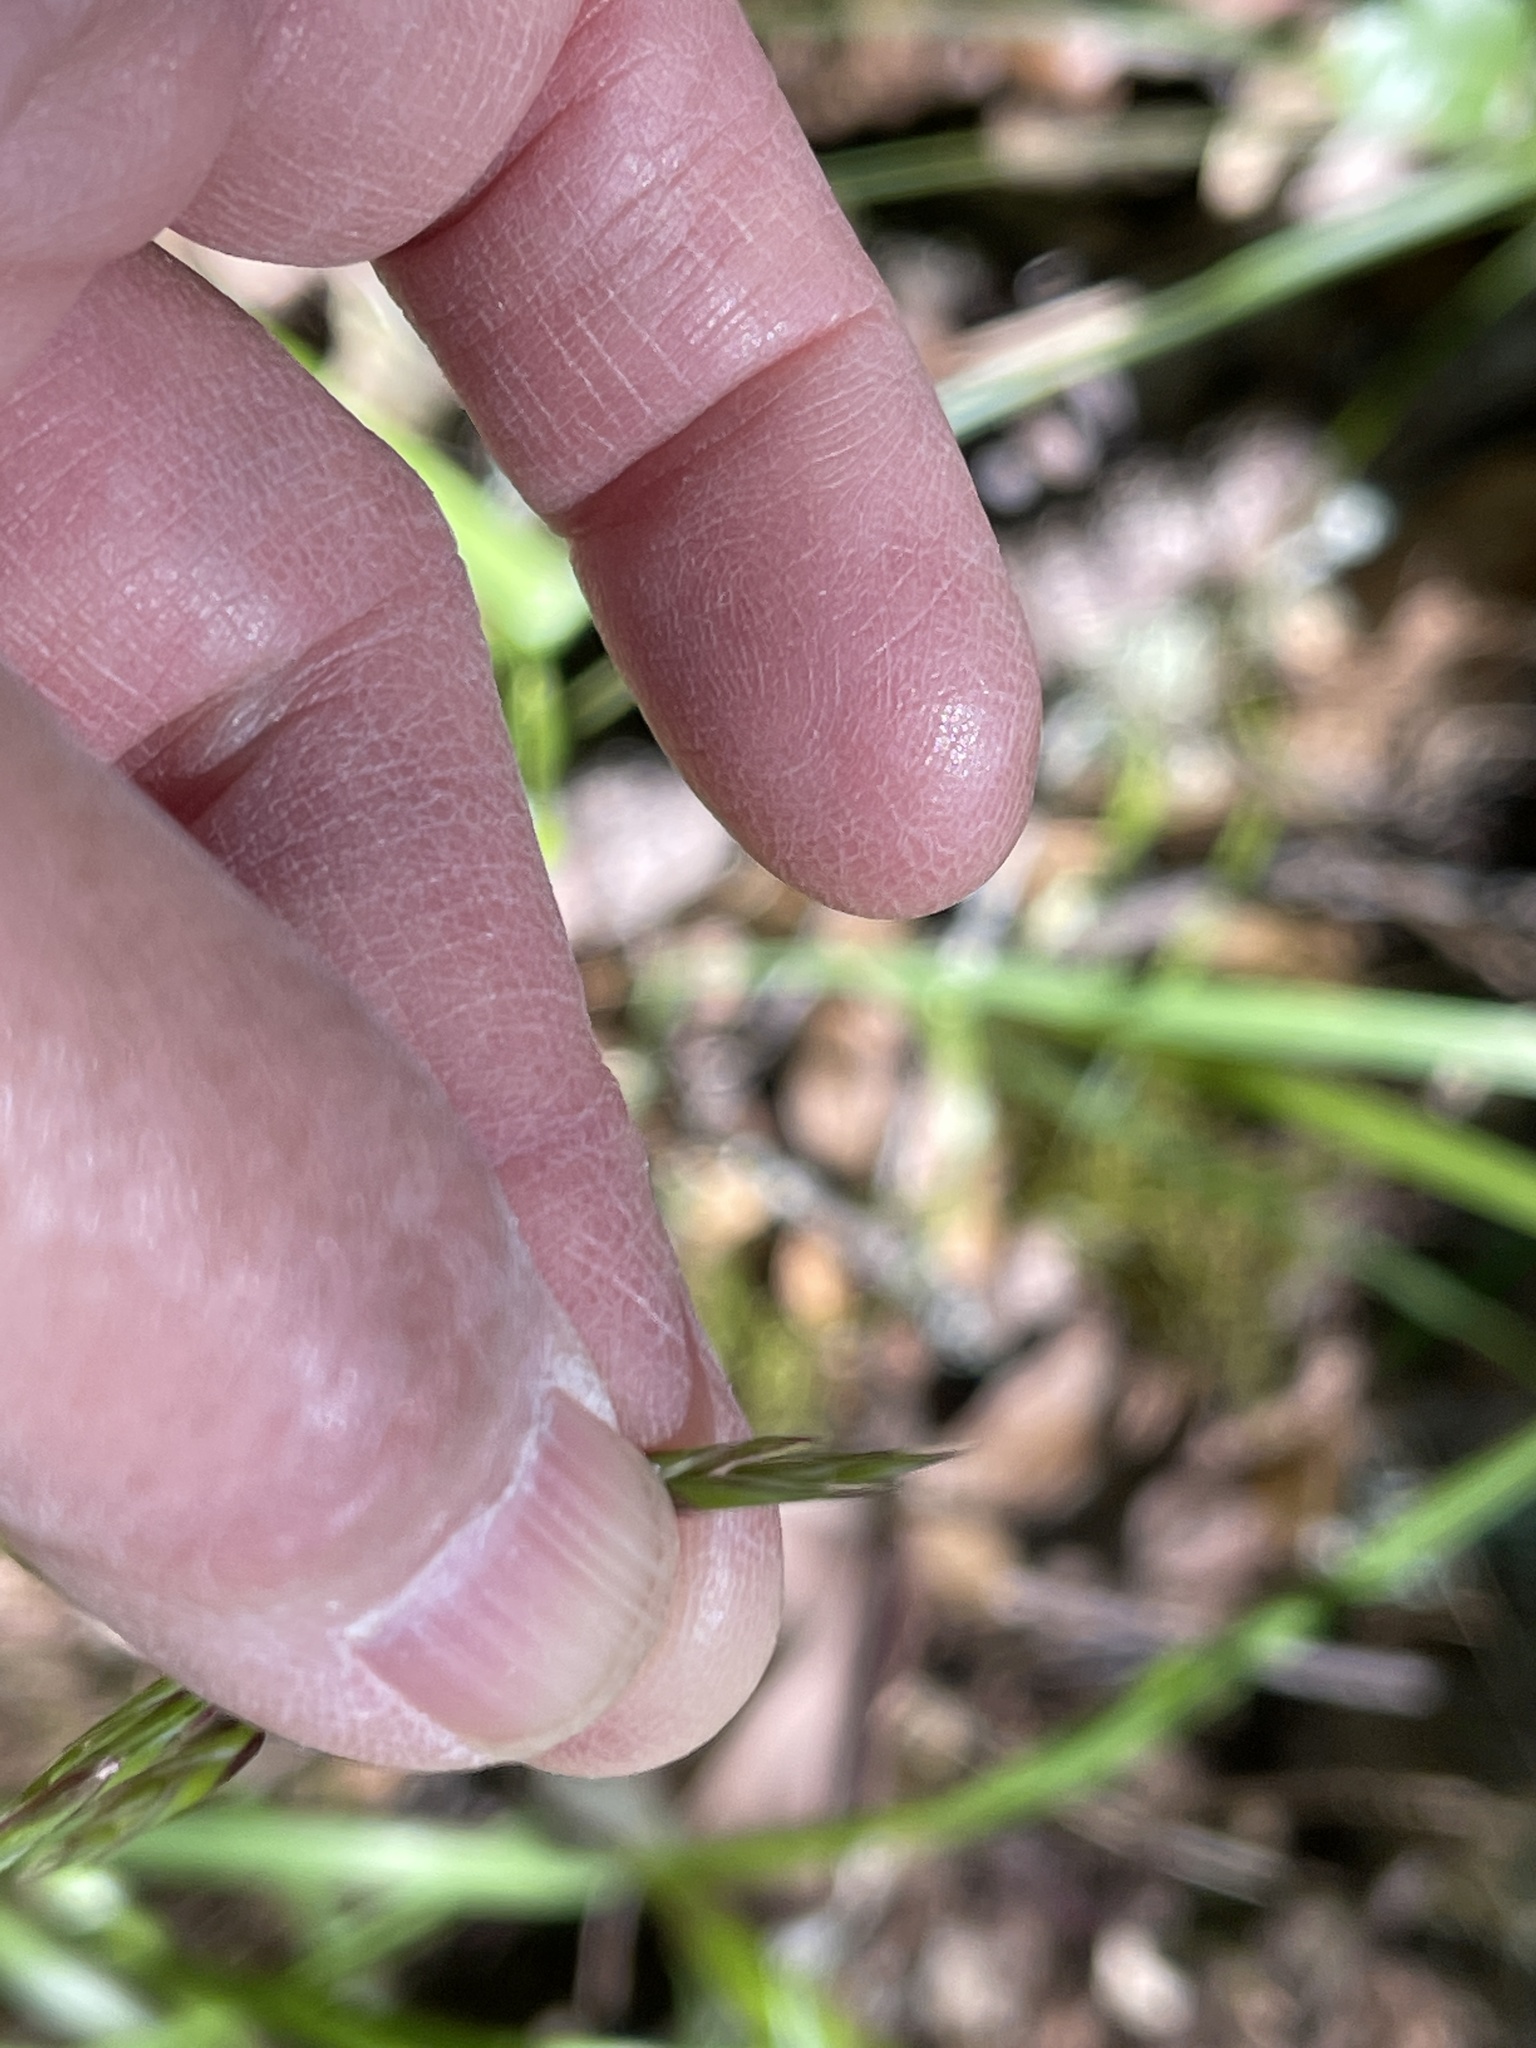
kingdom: Plantae
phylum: Tracheophyta
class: Liliopsida
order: Poales
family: Poaceae
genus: Melica
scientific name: Melica harfordii
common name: Harford's melic
